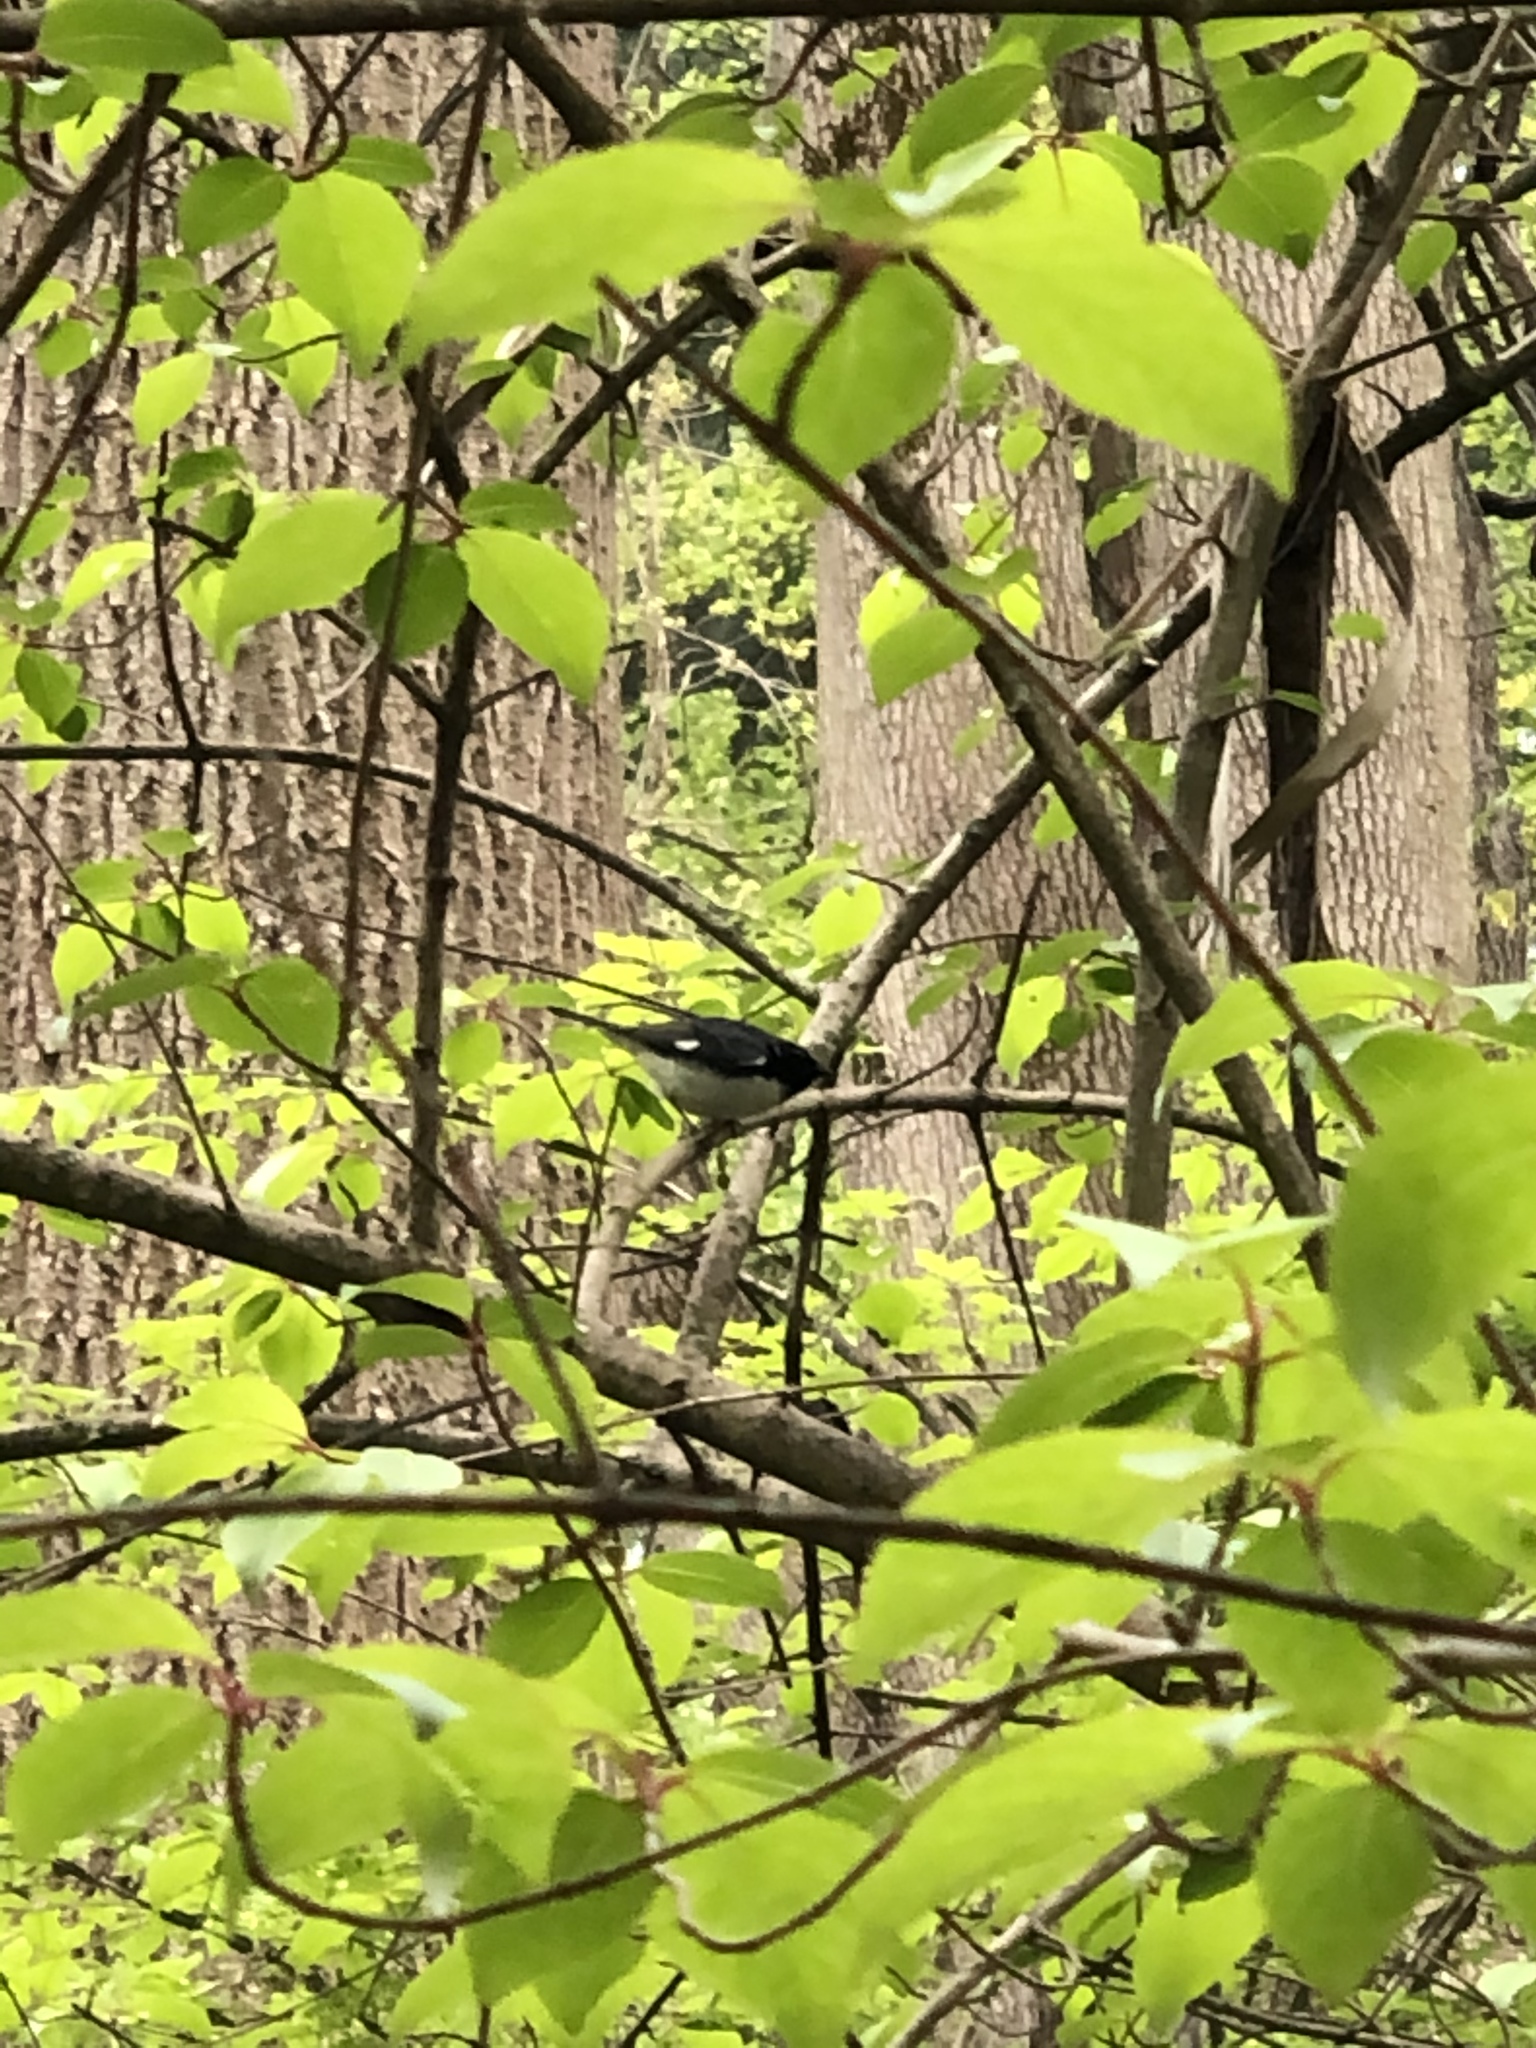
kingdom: Animalia
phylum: Chordata
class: Aves
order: Passeriformes
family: Parulidae
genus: Setophaga
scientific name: Setophaga caerulescens
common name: Black-throated blue warbler
